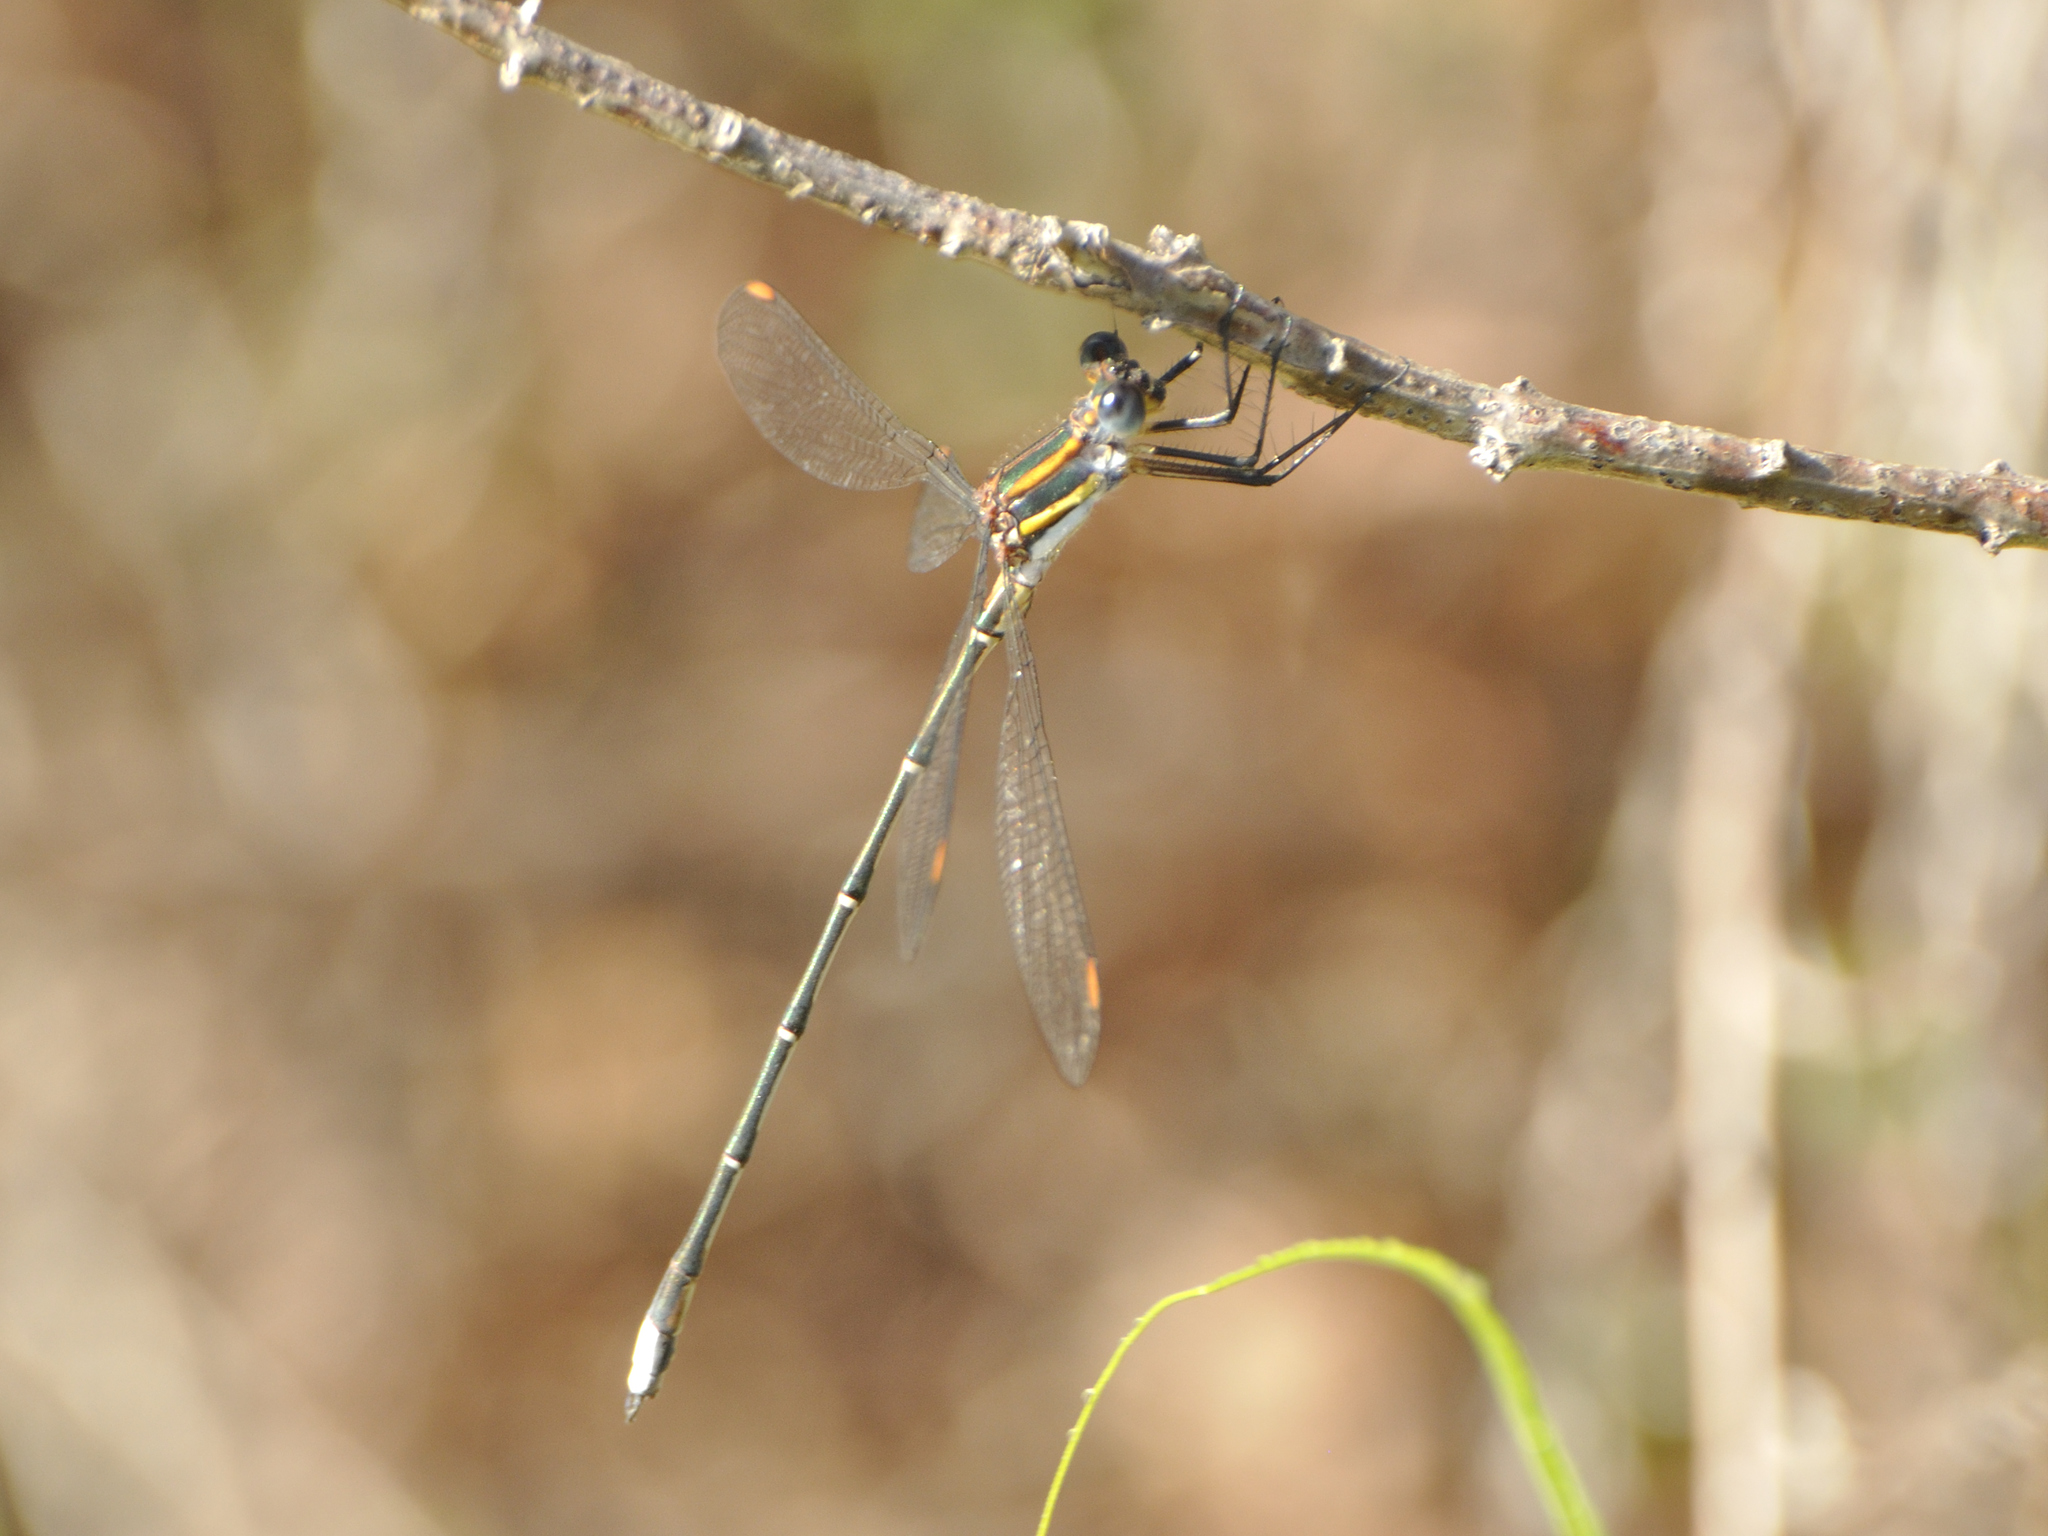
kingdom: Animalia
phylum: Arthropoda
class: Insecta
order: Odonata
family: Synlestidae
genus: Chlorolestes
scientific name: Chlorolestes conspicuus
